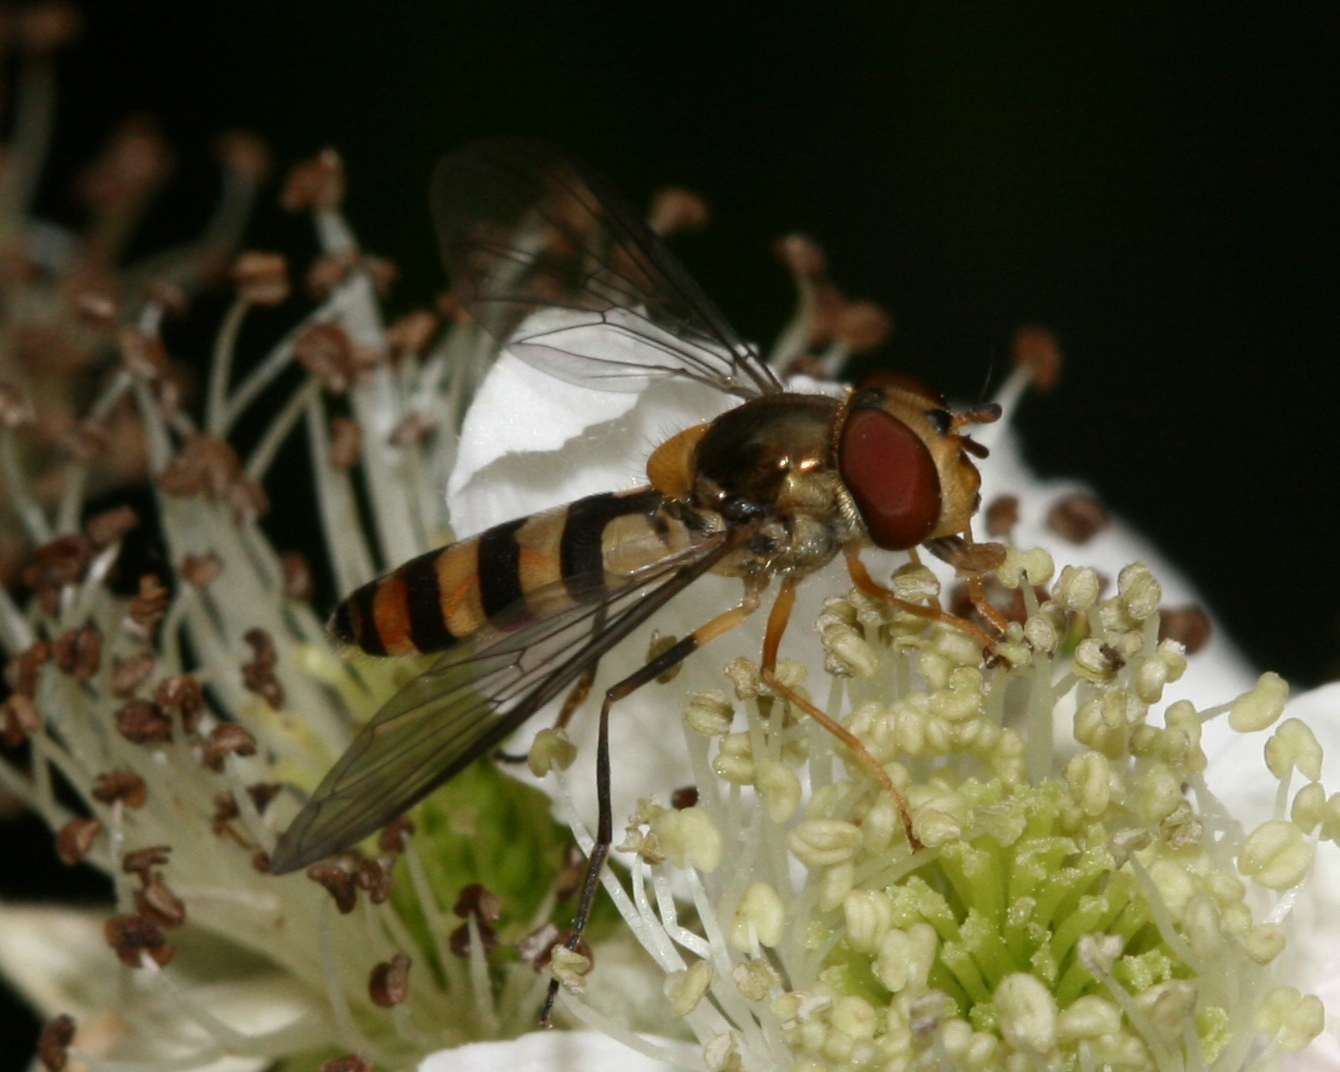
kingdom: Animalia
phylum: Arthropoda
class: Insecta
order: Diptera
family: Syrphidae
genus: Meliscaeva
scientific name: Meliscaeva cinctella
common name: American thintail fly
